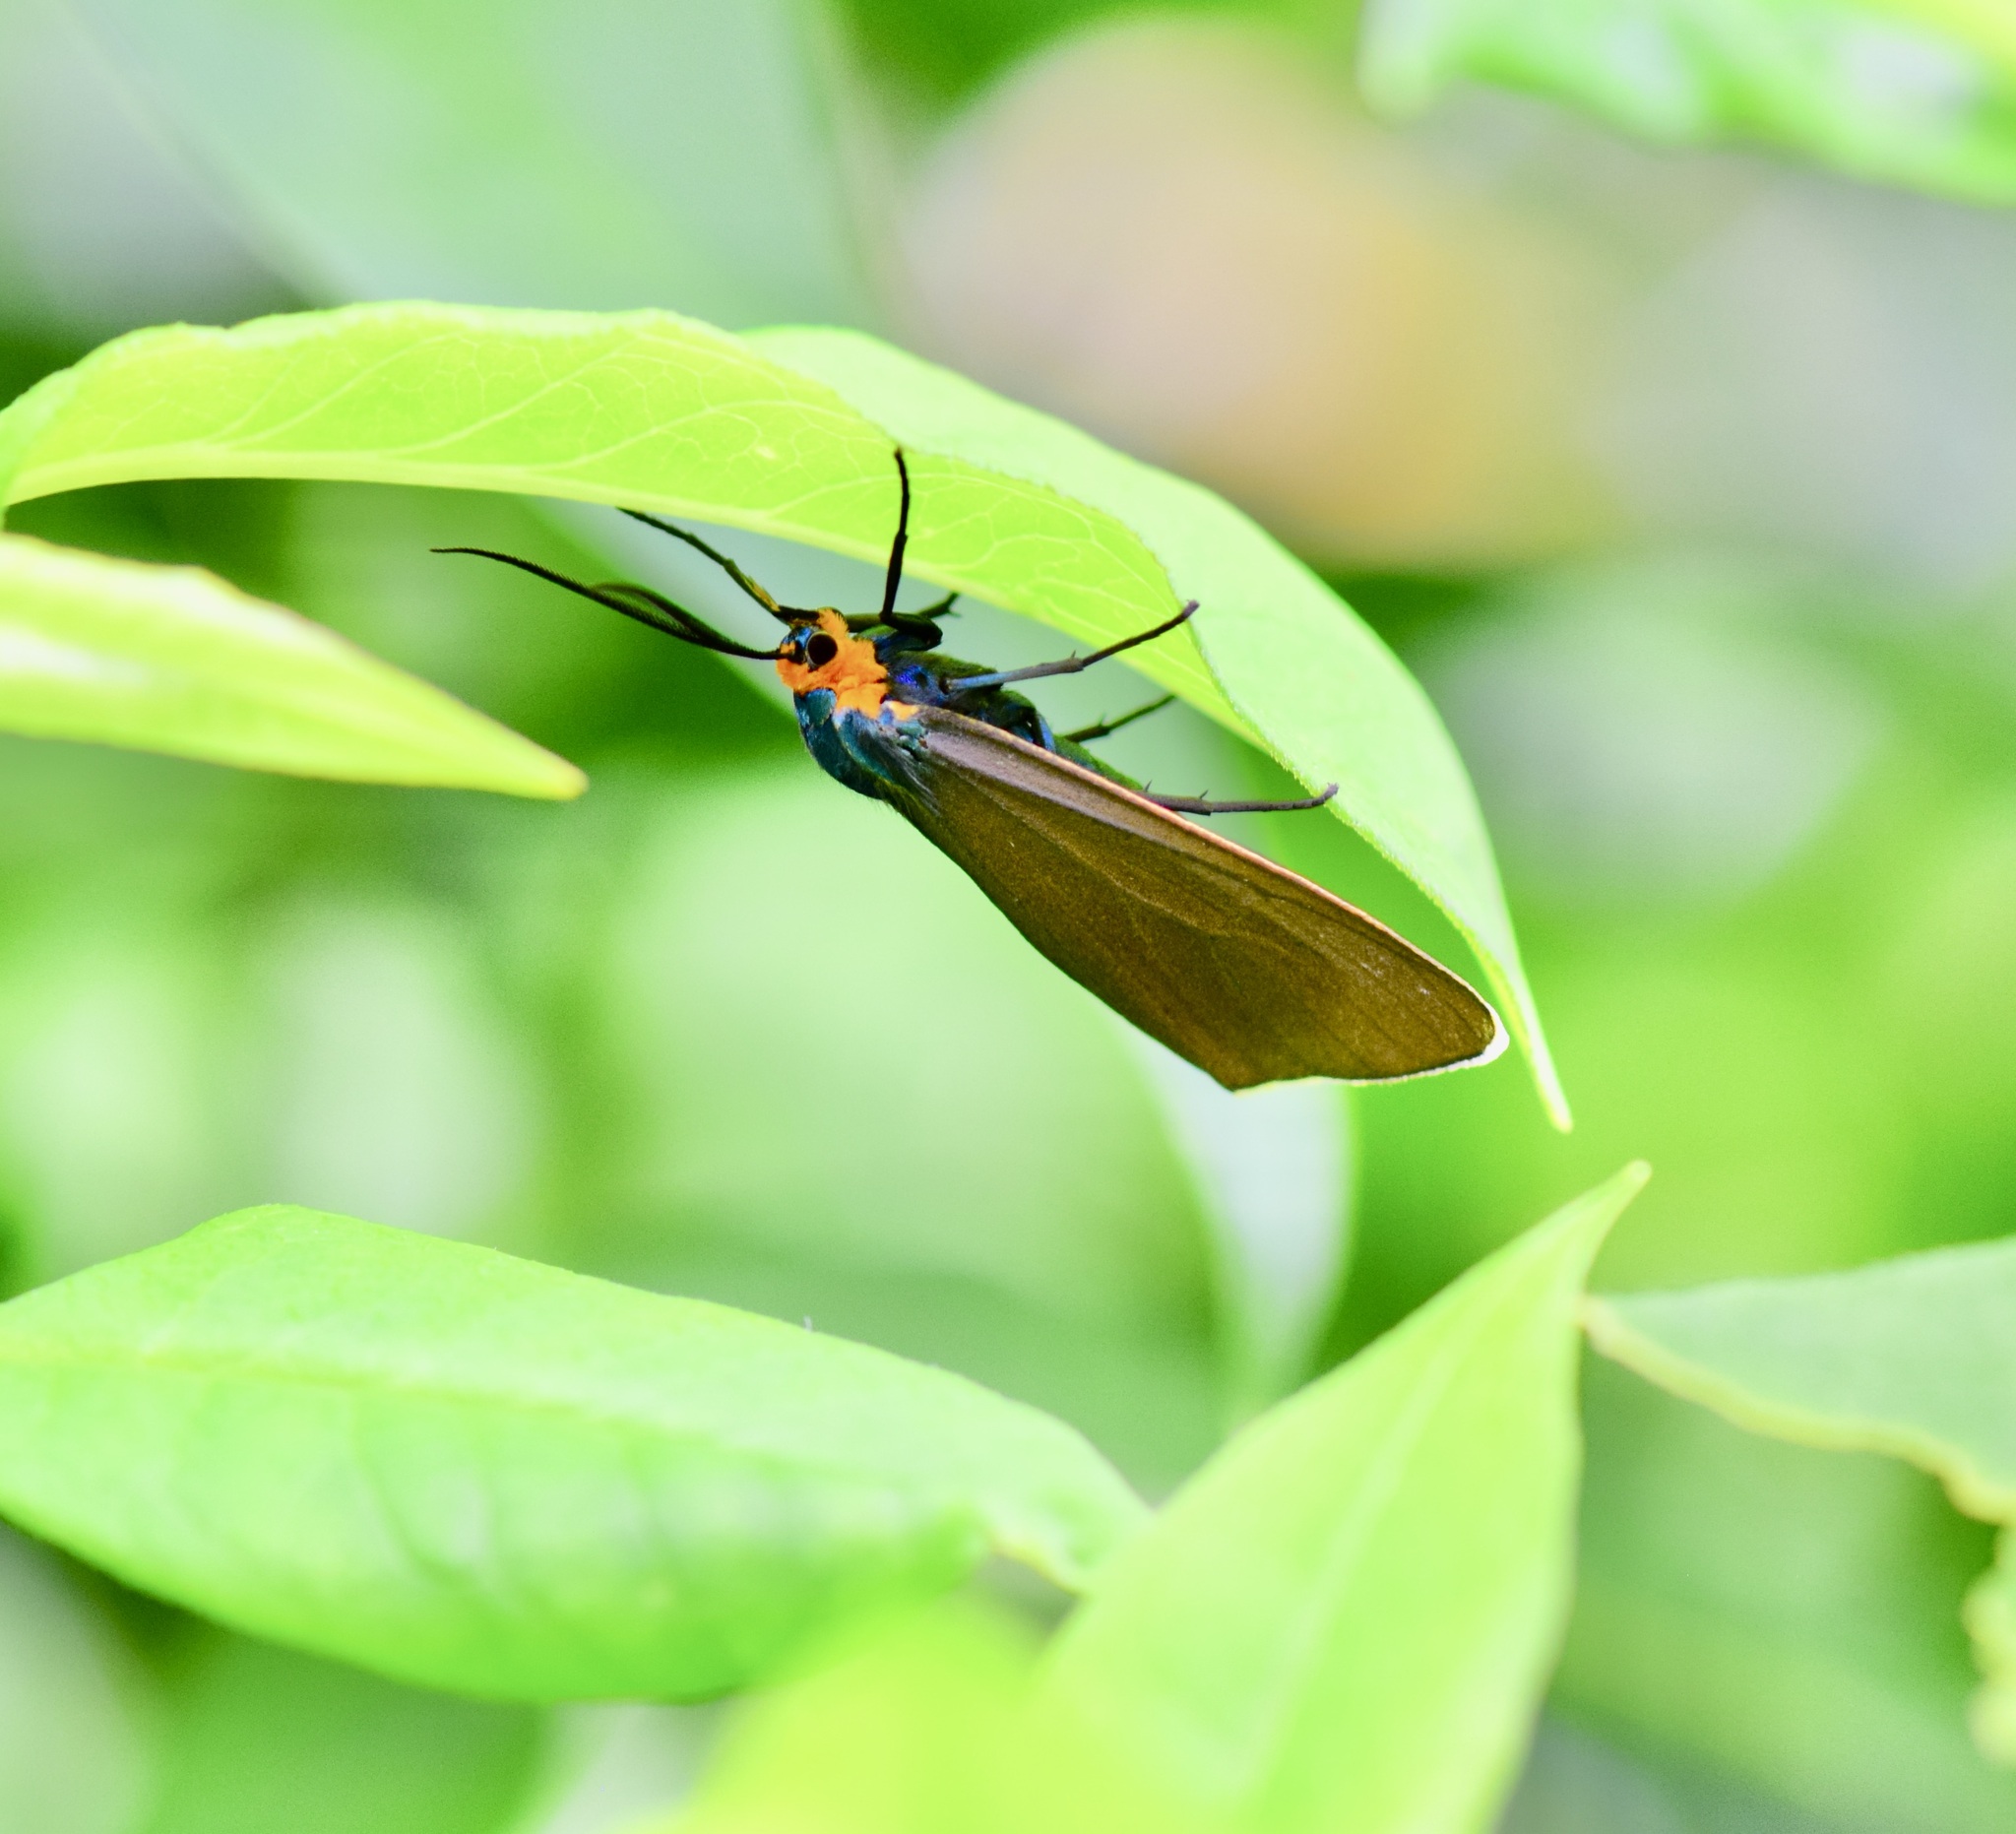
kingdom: Animalia
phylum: Arthropoda
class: Insecta
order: Lepidoptera
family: Erebidae
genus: Ctenucha
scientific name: Ctenucha virginica
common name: Virginia ctenucha moth
